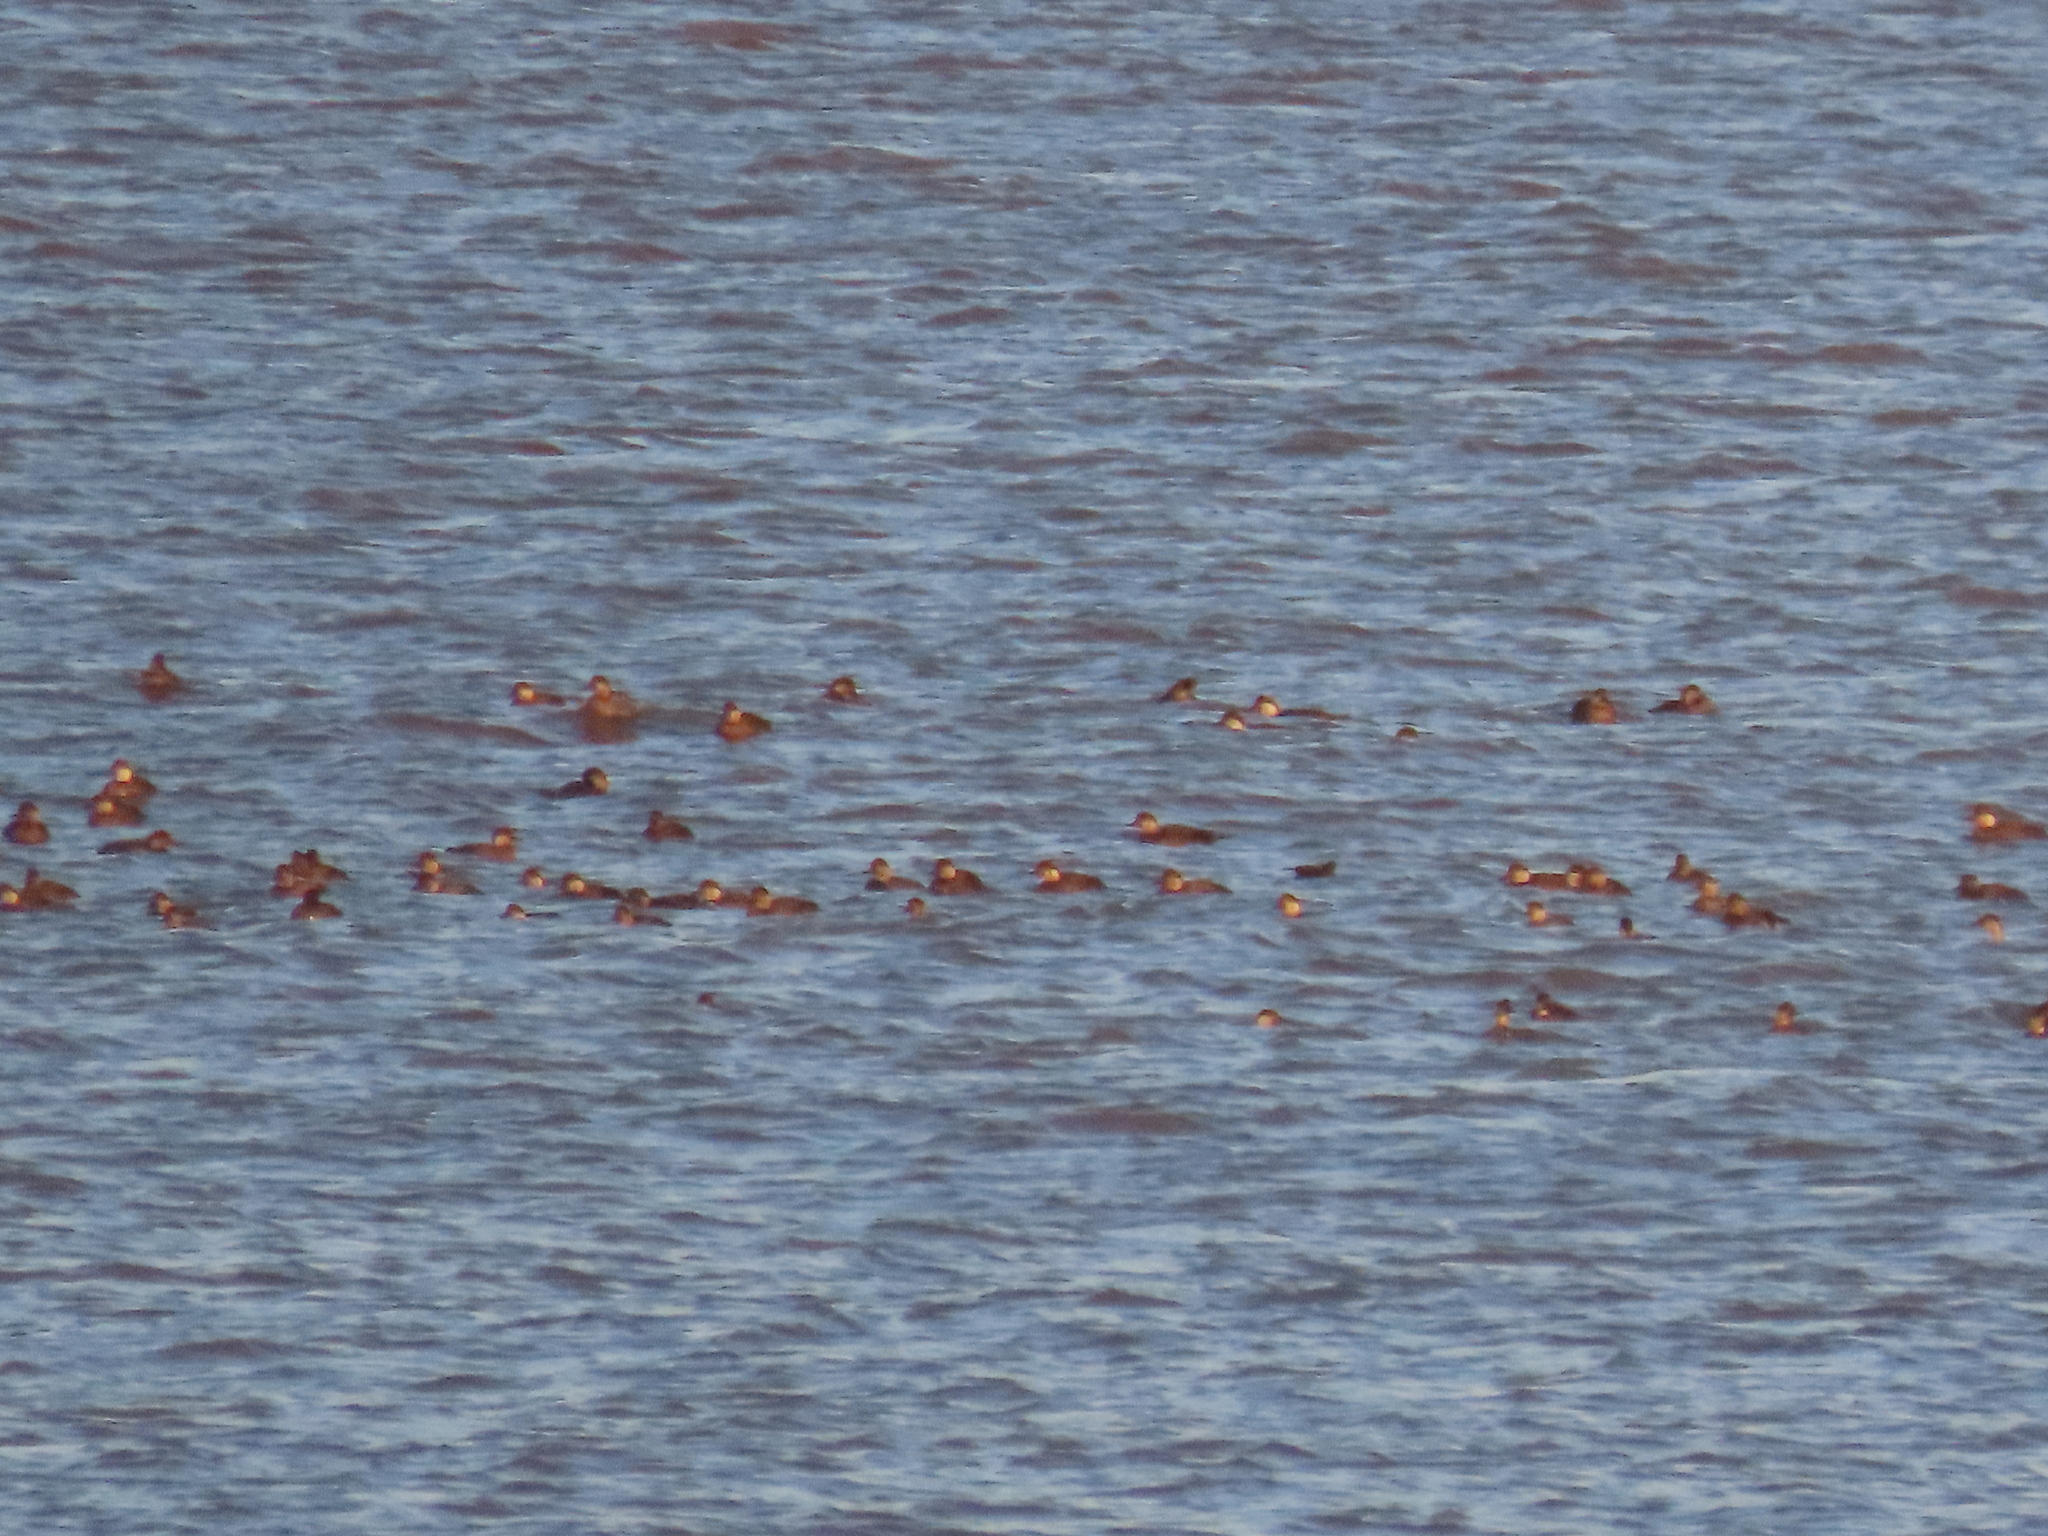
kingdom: Animalia
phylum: Chordata
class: Aves
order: Anseriformes
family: Anatidae
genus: Melanitta
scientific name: Melanitta nigra
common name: Common scoter
